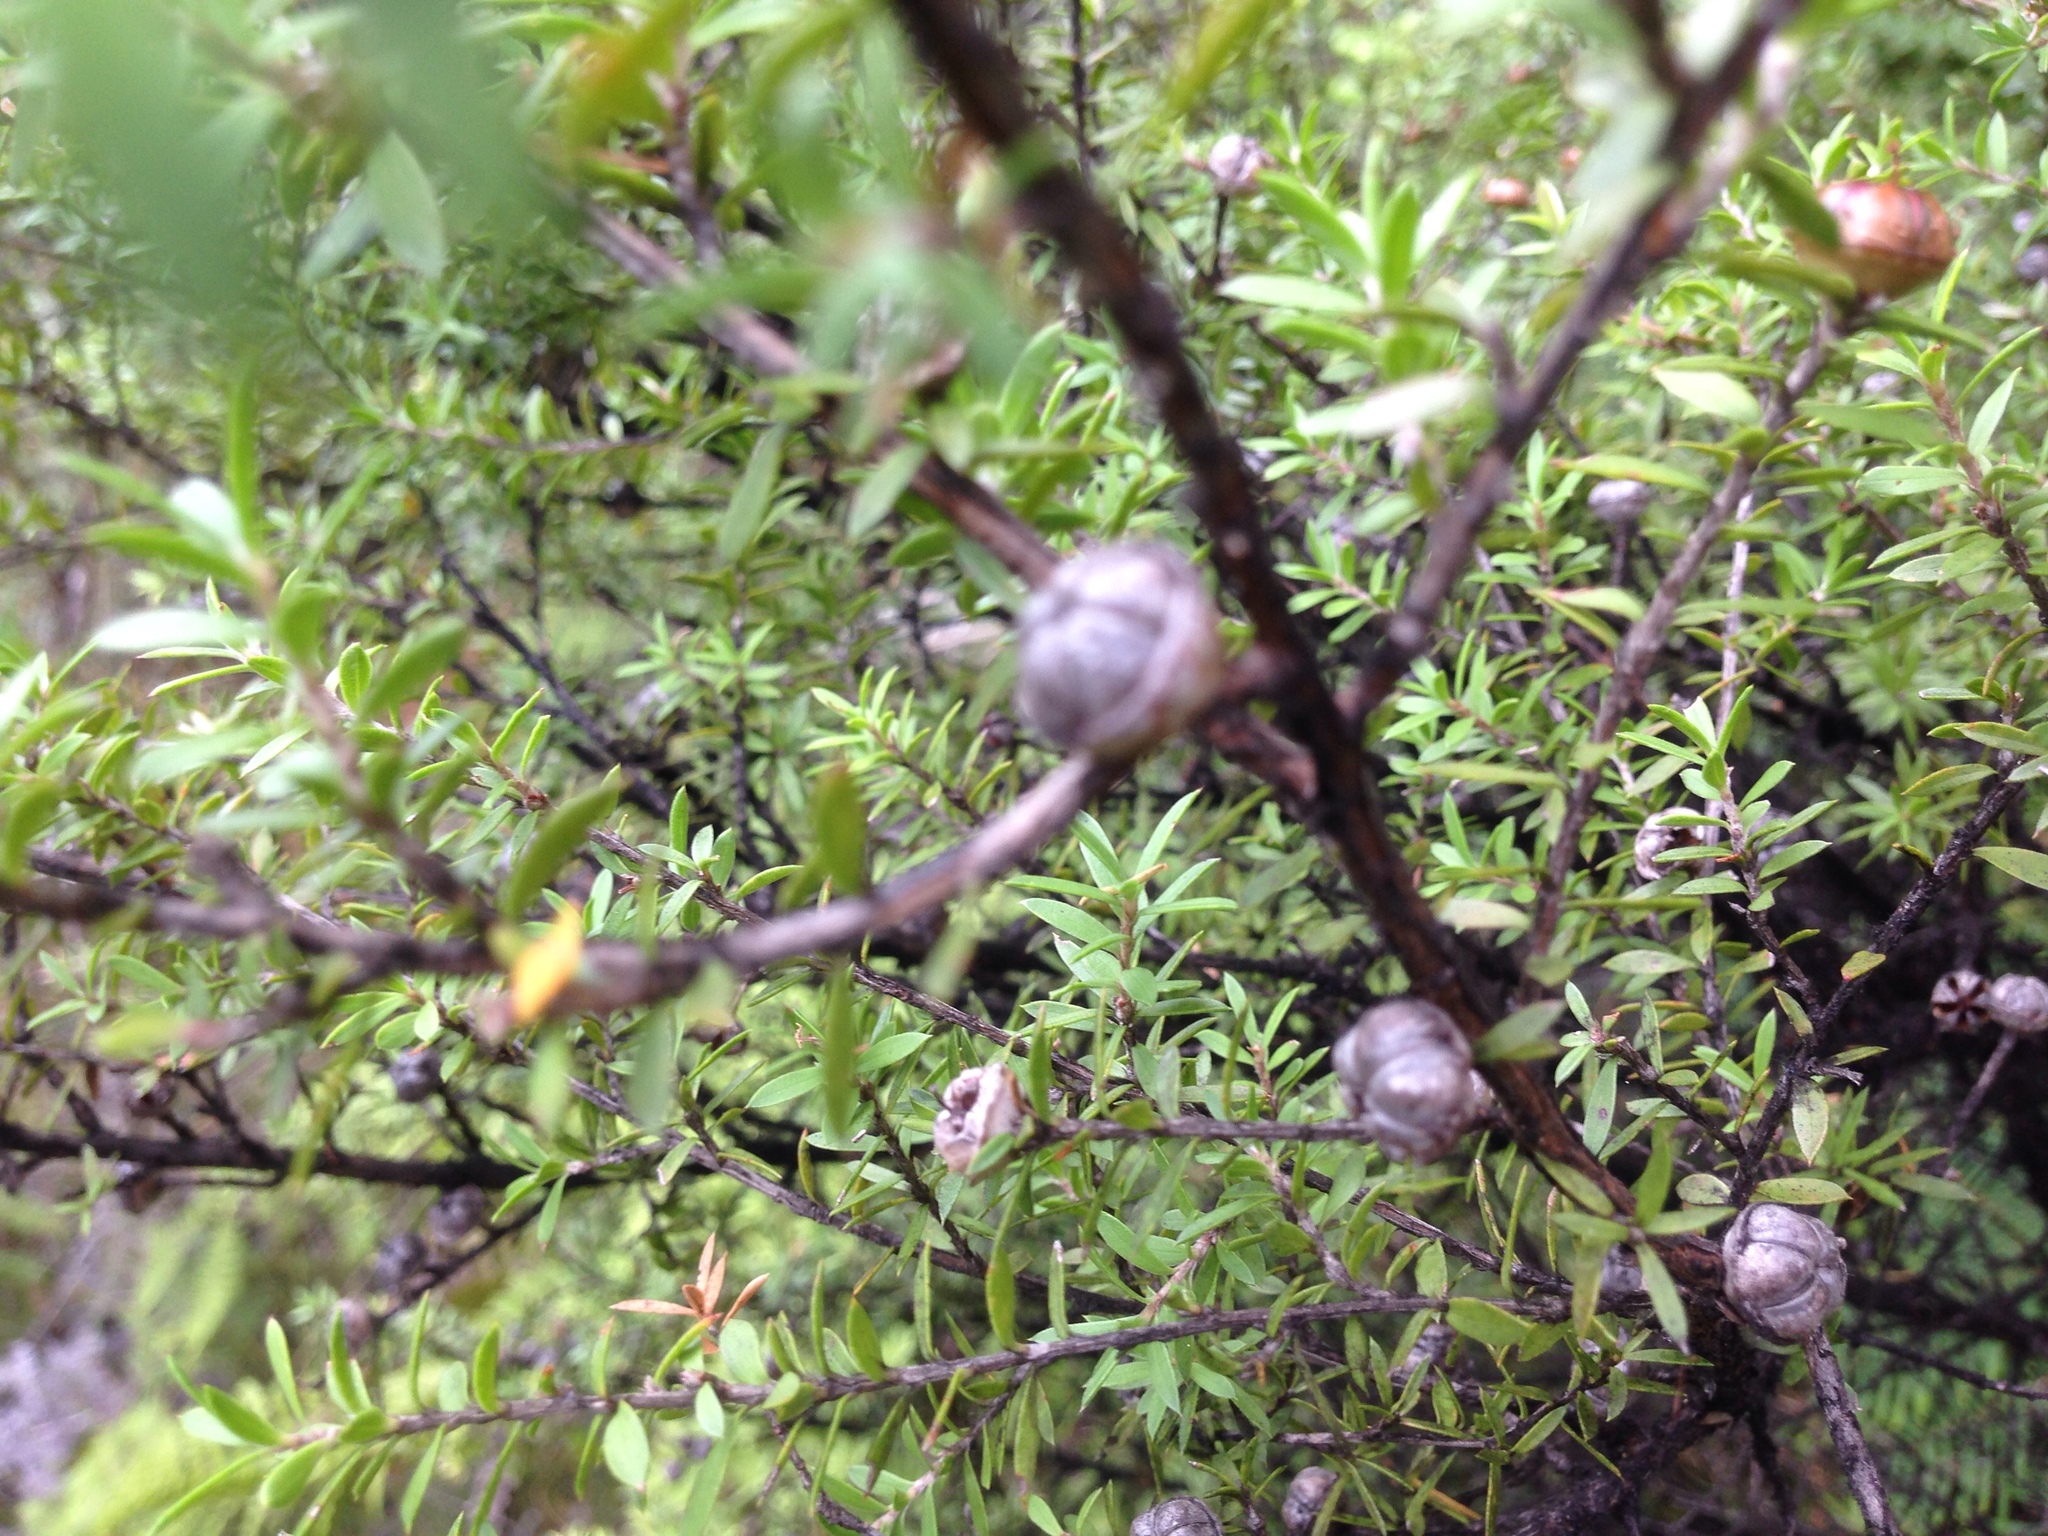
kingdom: Plantae
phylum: Tracheophyta
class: Magnoliopsida
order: Myrtales
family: Myrtaceae
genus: Leptospermum
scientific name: Leptospermum scoparium
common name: Broom tea-tree
